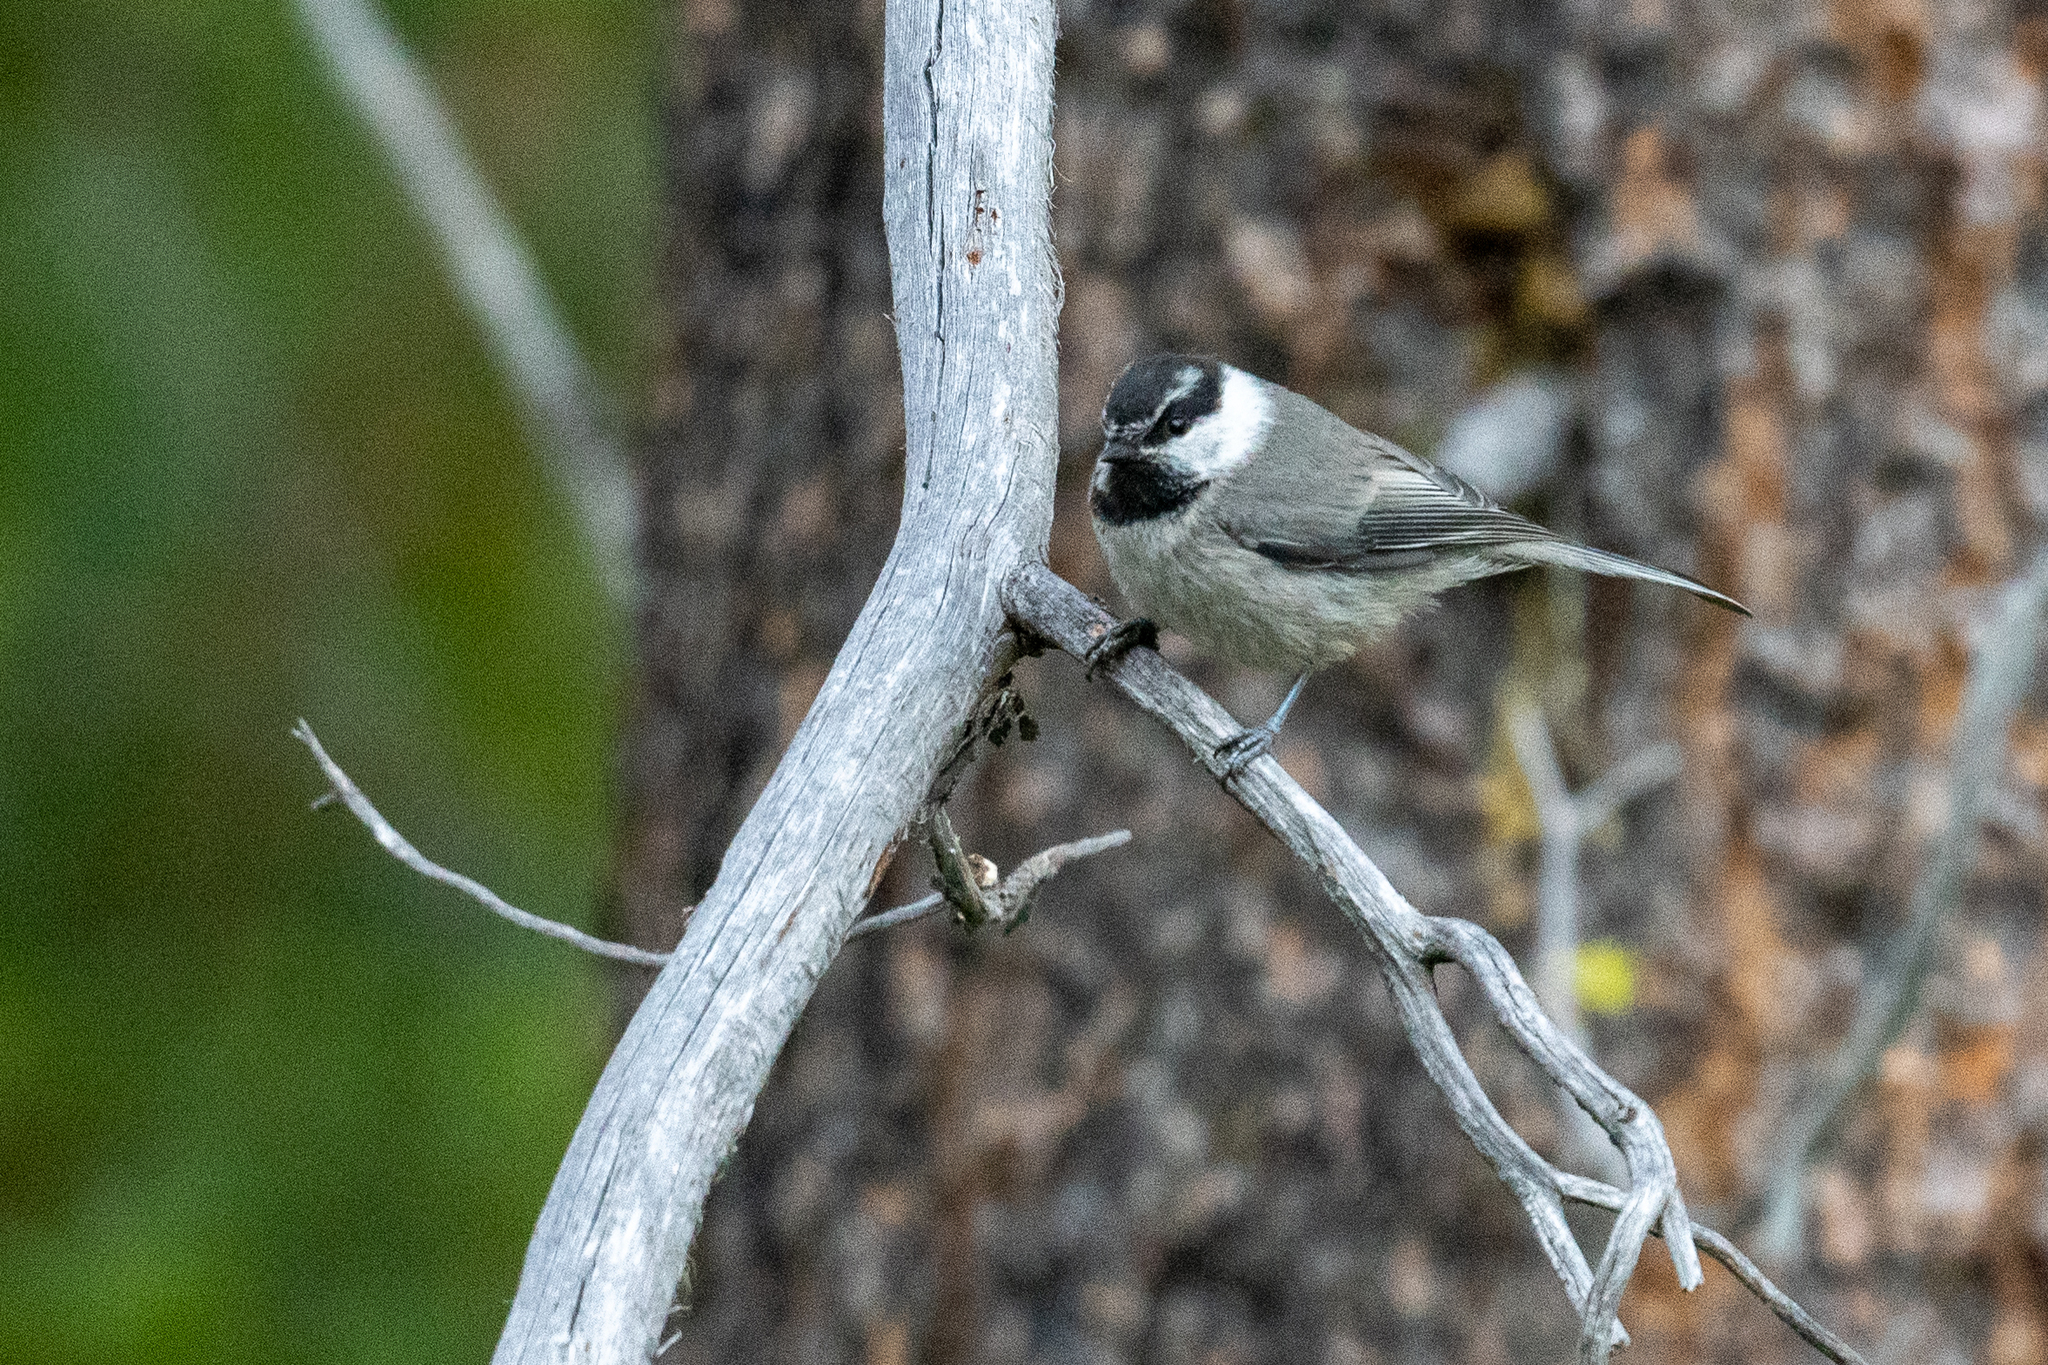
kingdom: Animalia
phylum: Chordata
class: Aves
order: Passeriformes
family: Paridae
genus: Poecile
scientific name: Poecile gambeli
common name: Mountain chickadee
